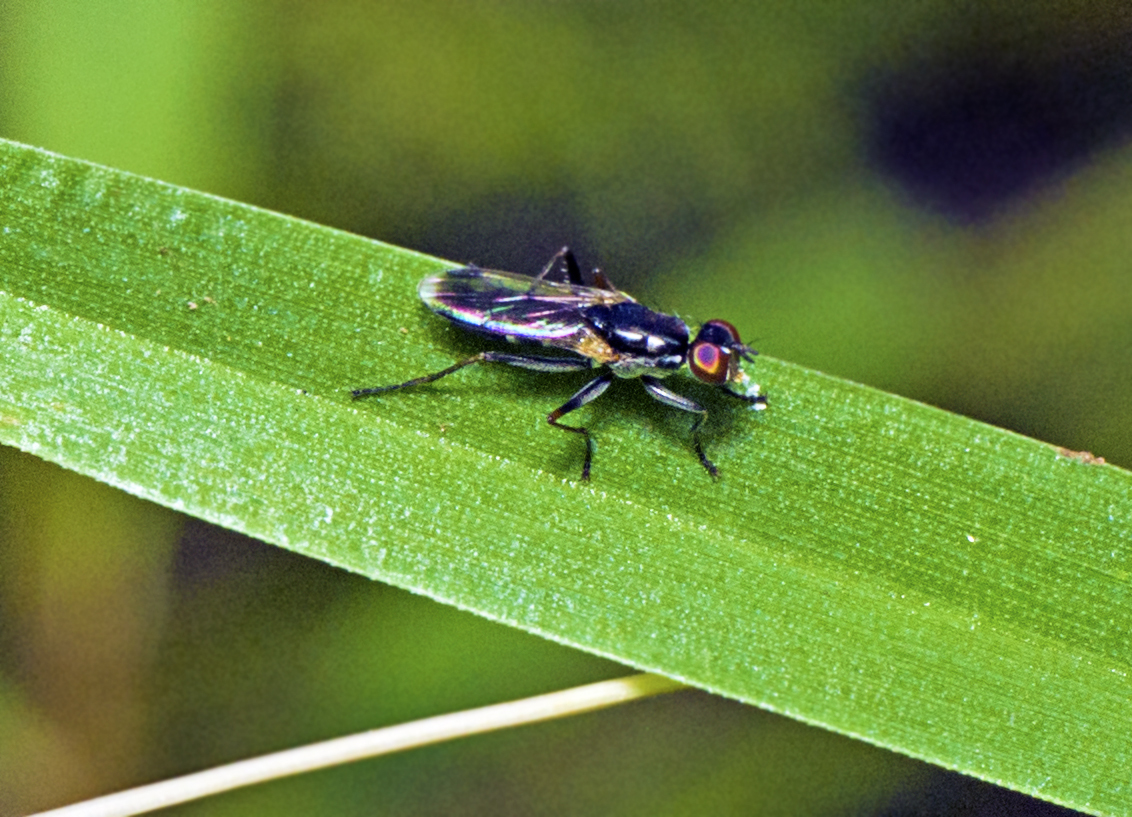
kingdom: Animalia
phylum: Arthropoda
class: Insecta
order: Diptera
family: Muscidae
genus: Lispe
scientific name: Lispe albimaculata
